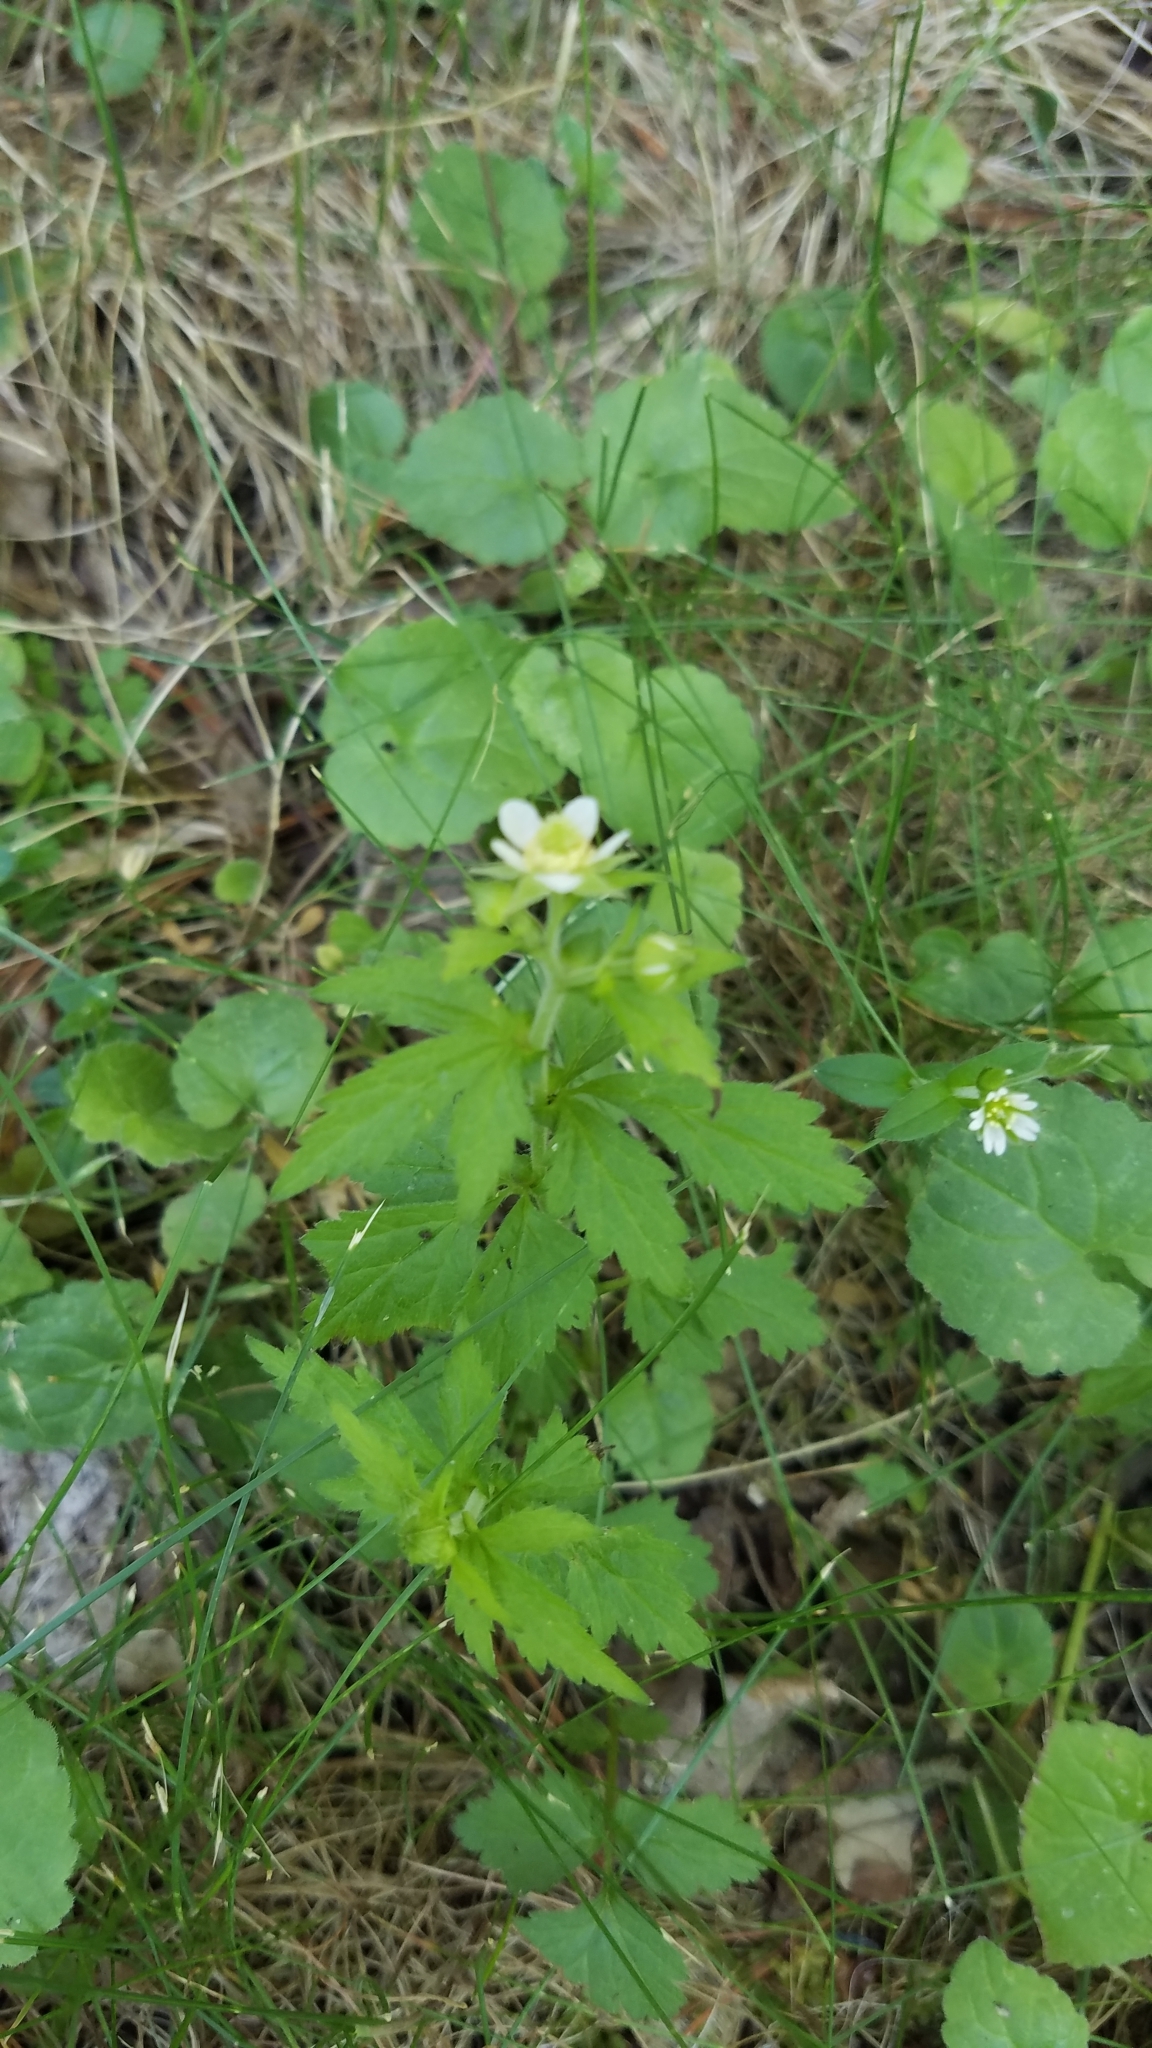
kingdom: Plantae
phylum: Tracheophyta
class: Magnoliopsida
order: Rosales
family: Rosaceae
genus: Geum
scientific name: Geum canadense
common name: White avens
